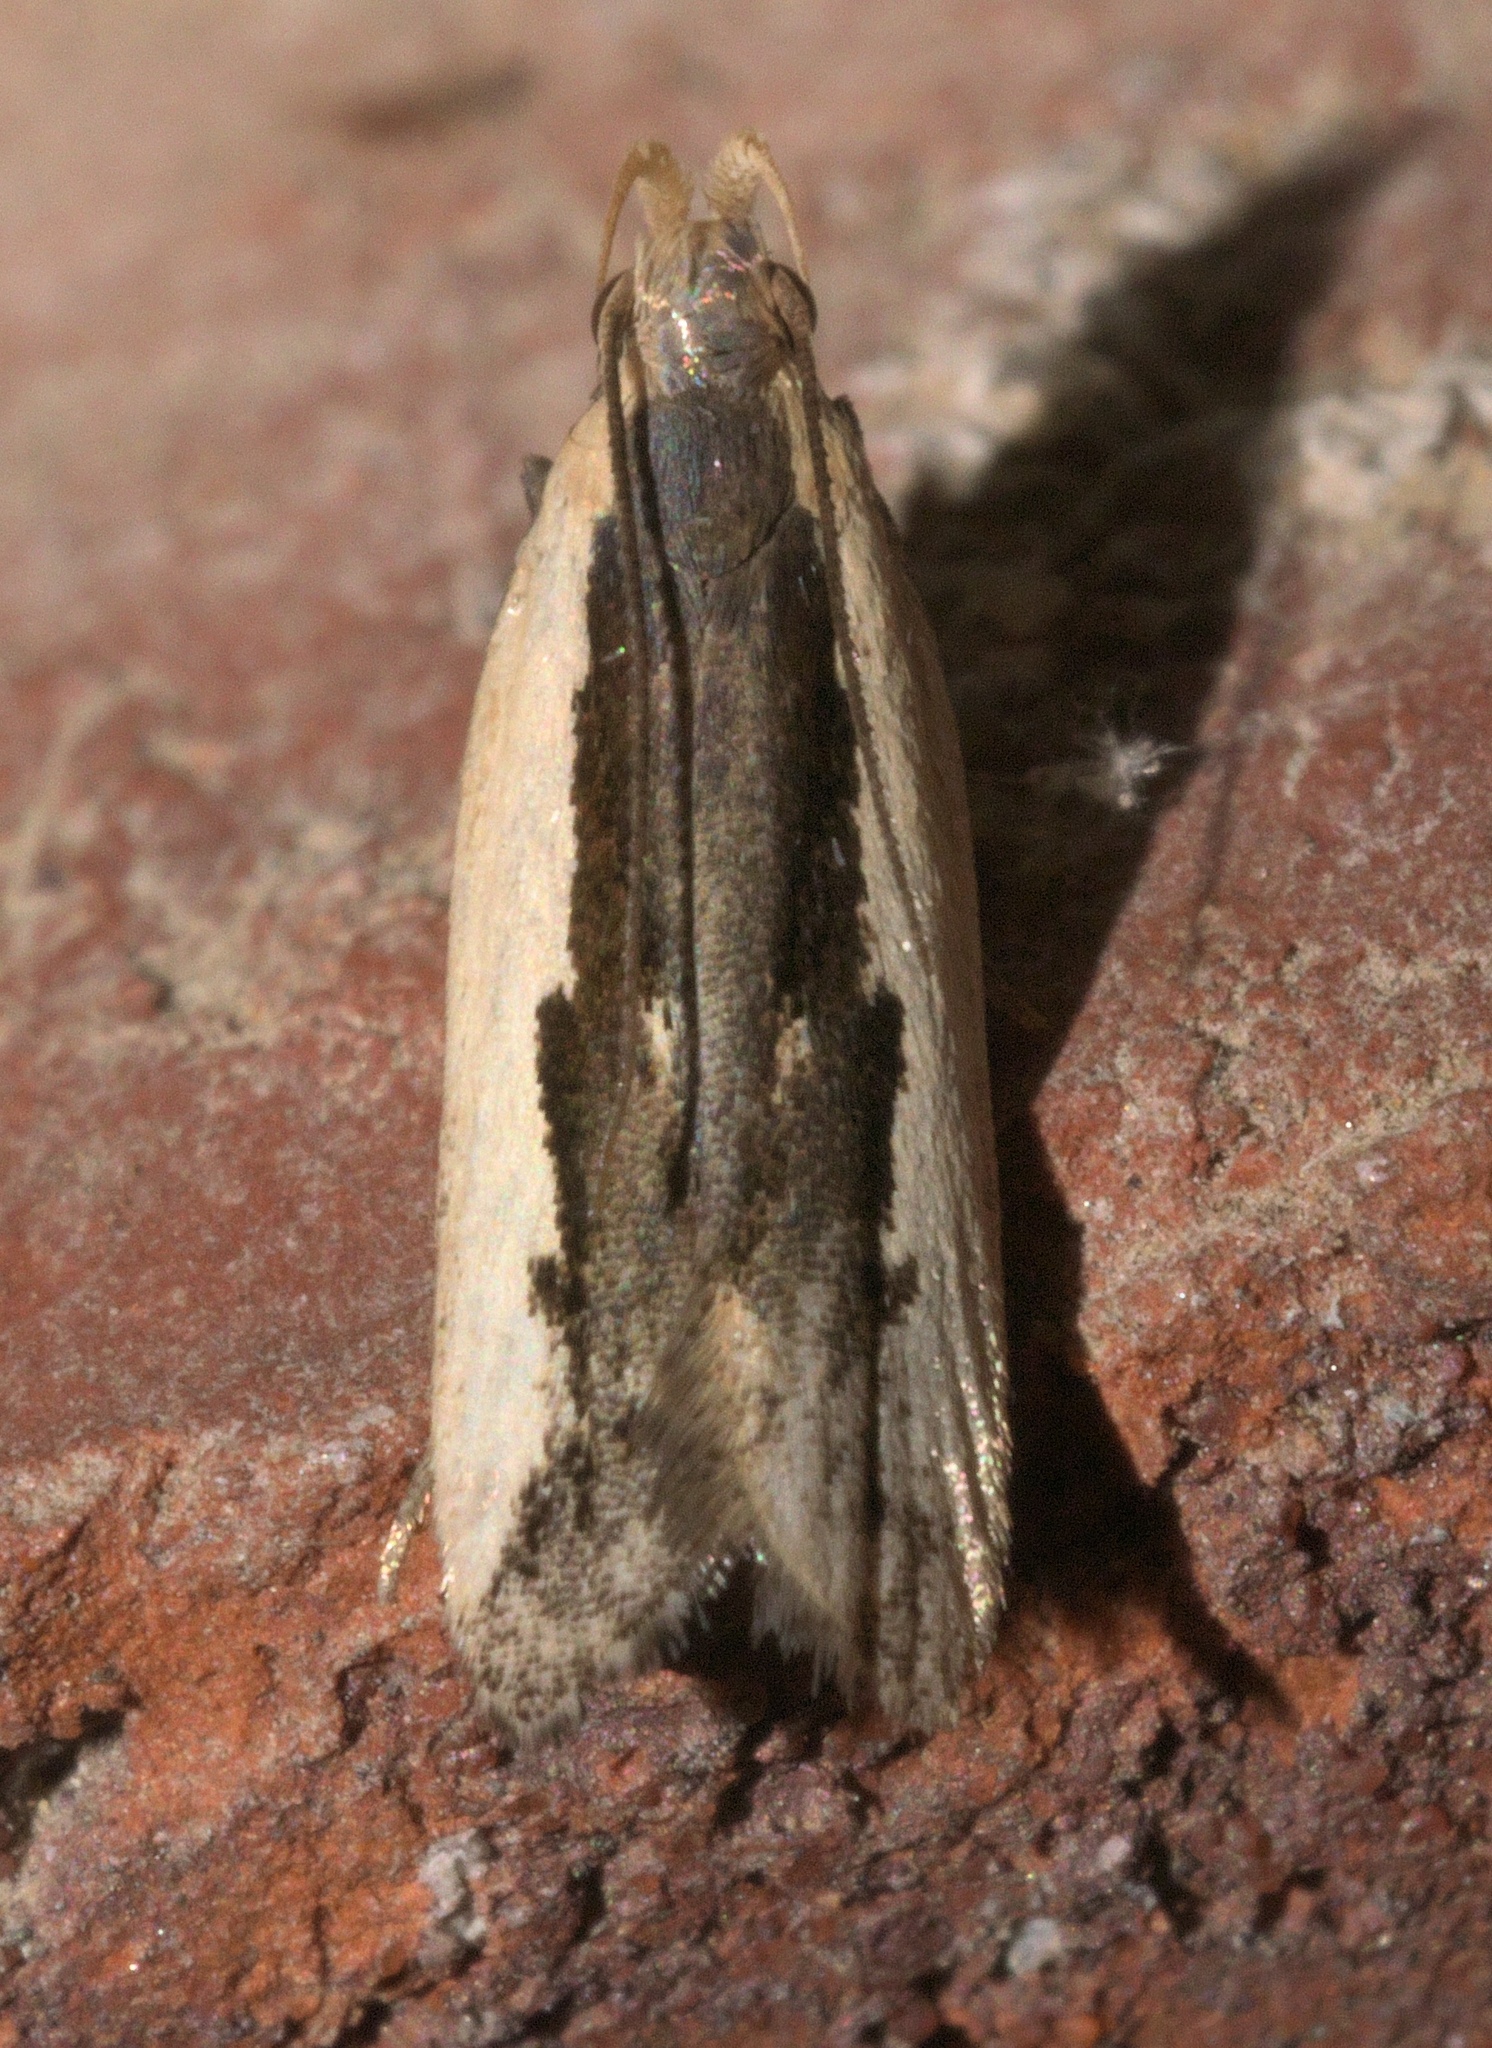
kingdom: Animalia
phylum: Arthropoda
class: Insecta
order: Lepidoptera
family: Gelechiidae
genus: Dichomeris
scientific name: Dichomeris
